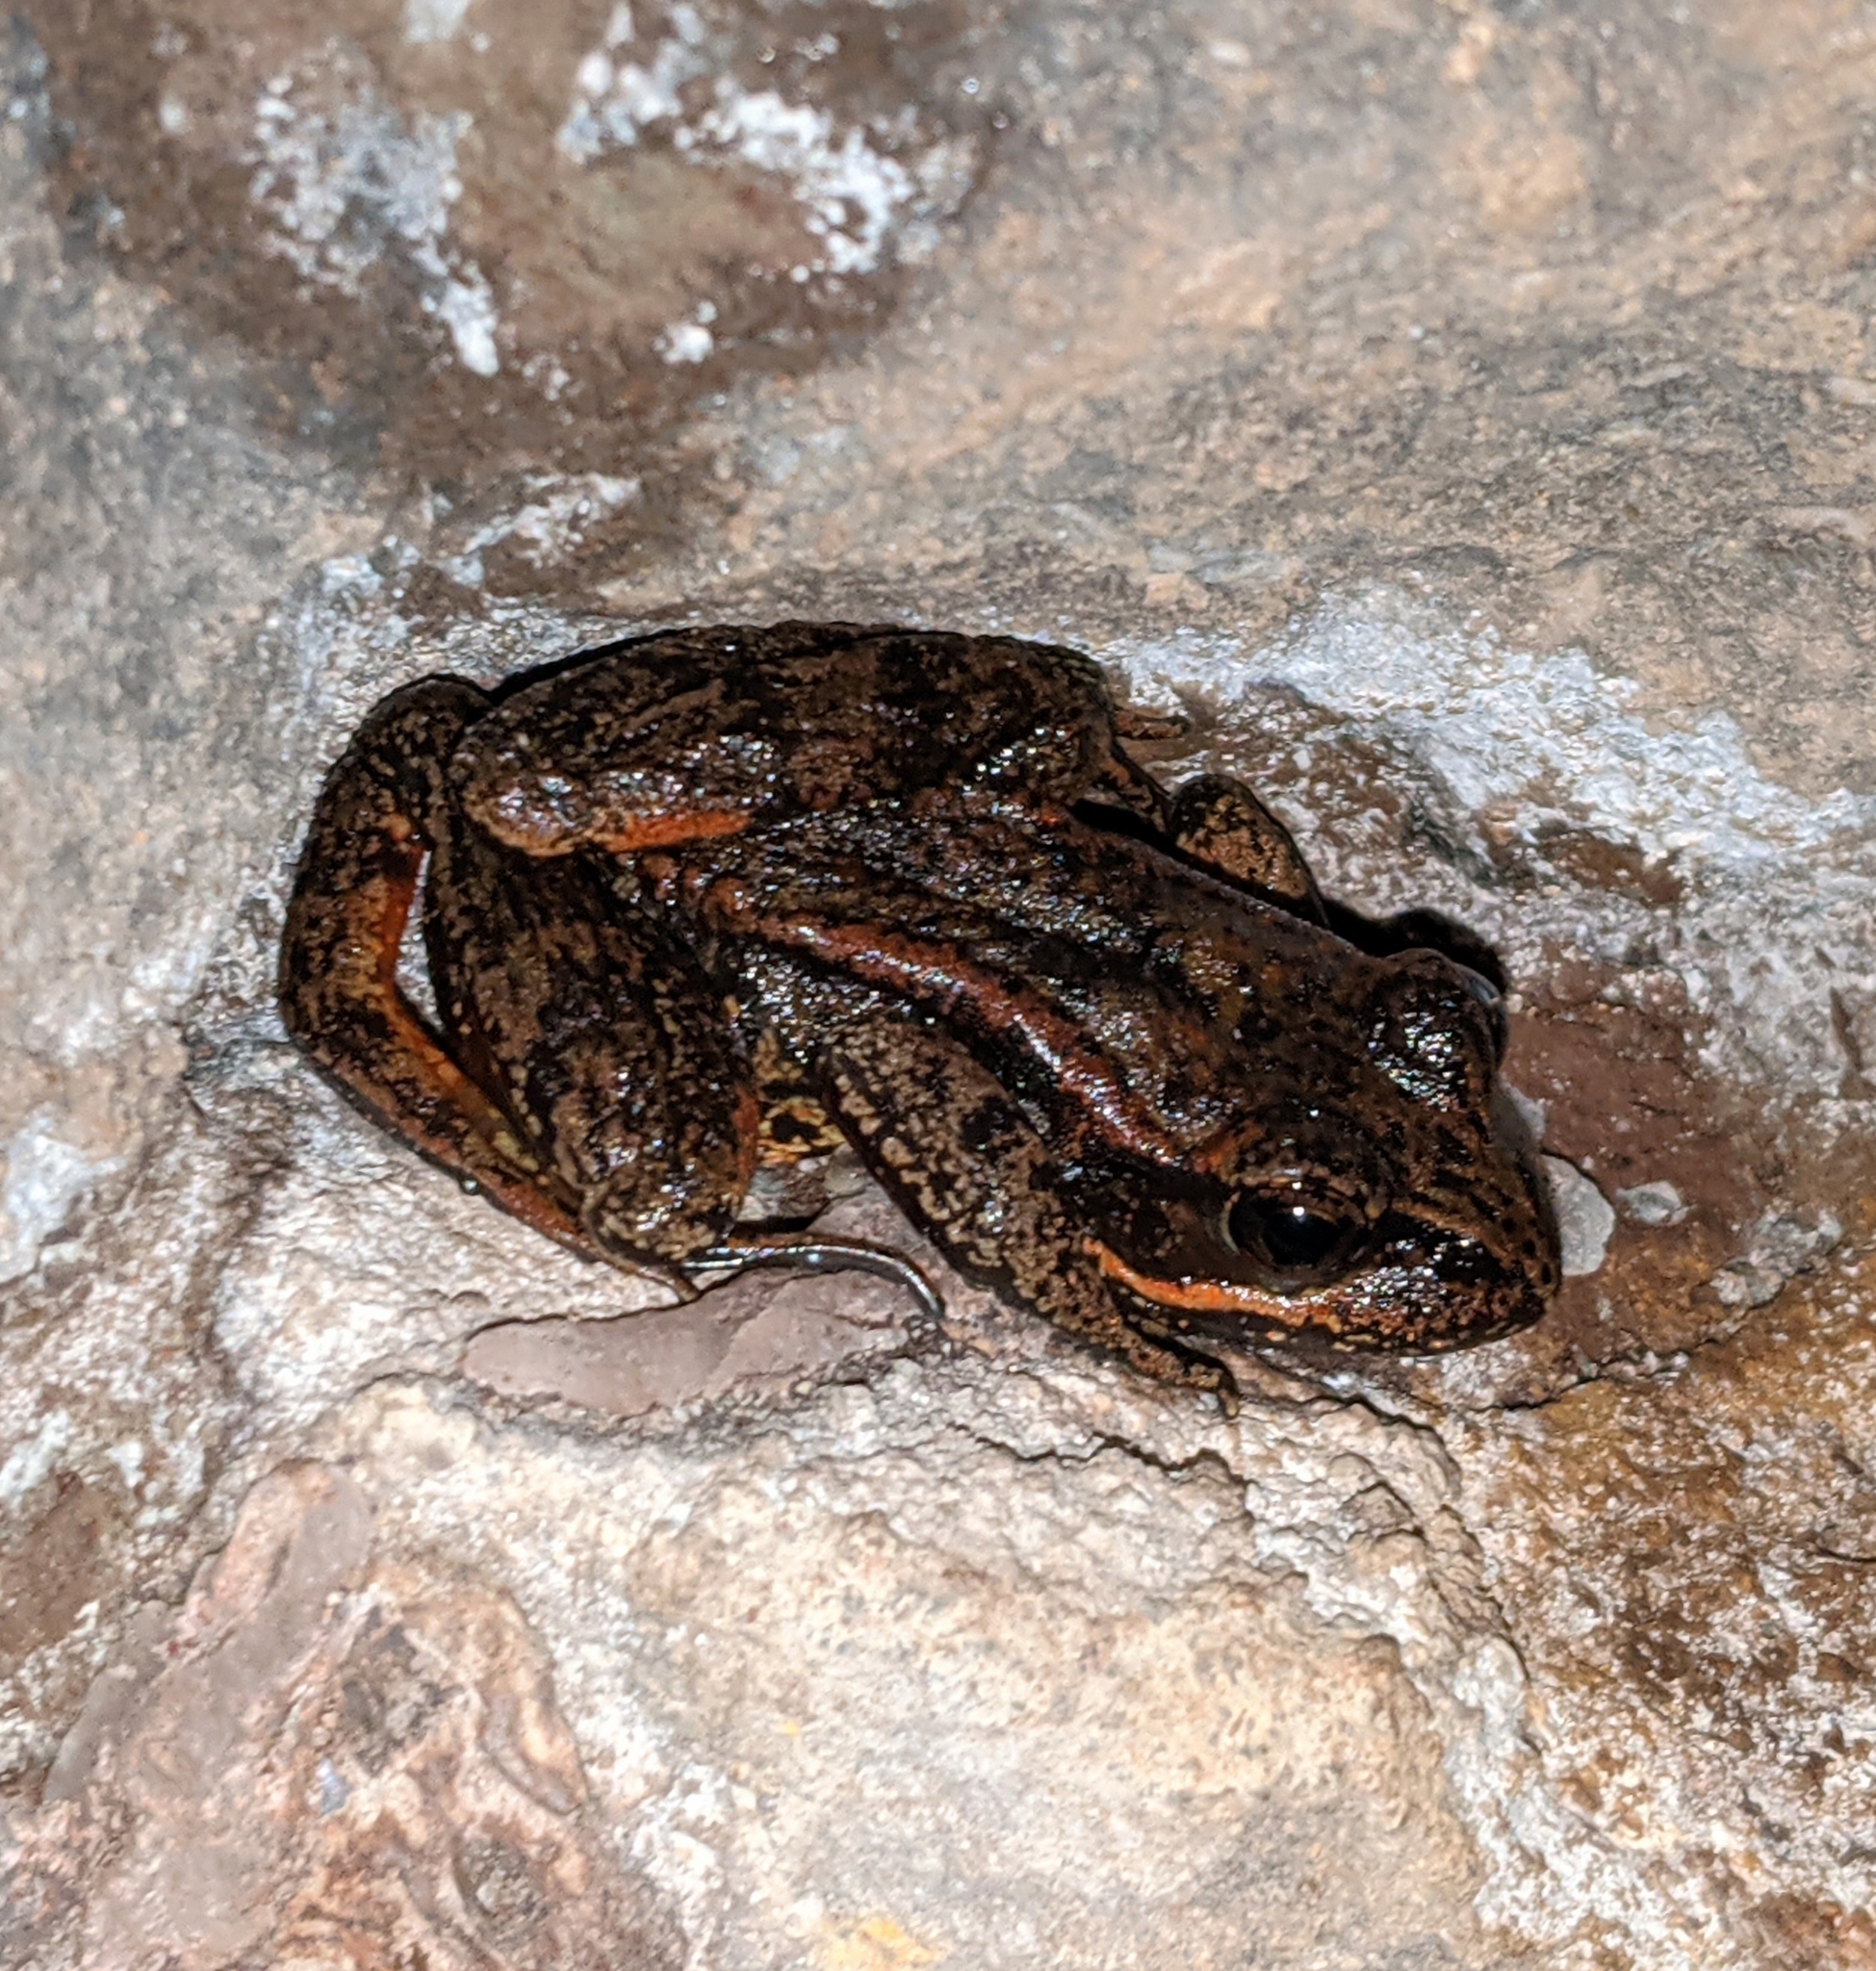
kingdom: Animalia
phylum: Chordata
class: Amphibia
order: Anura
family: Ranidae
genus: Rana
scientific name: Rana aurora
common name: Red-legged frog
